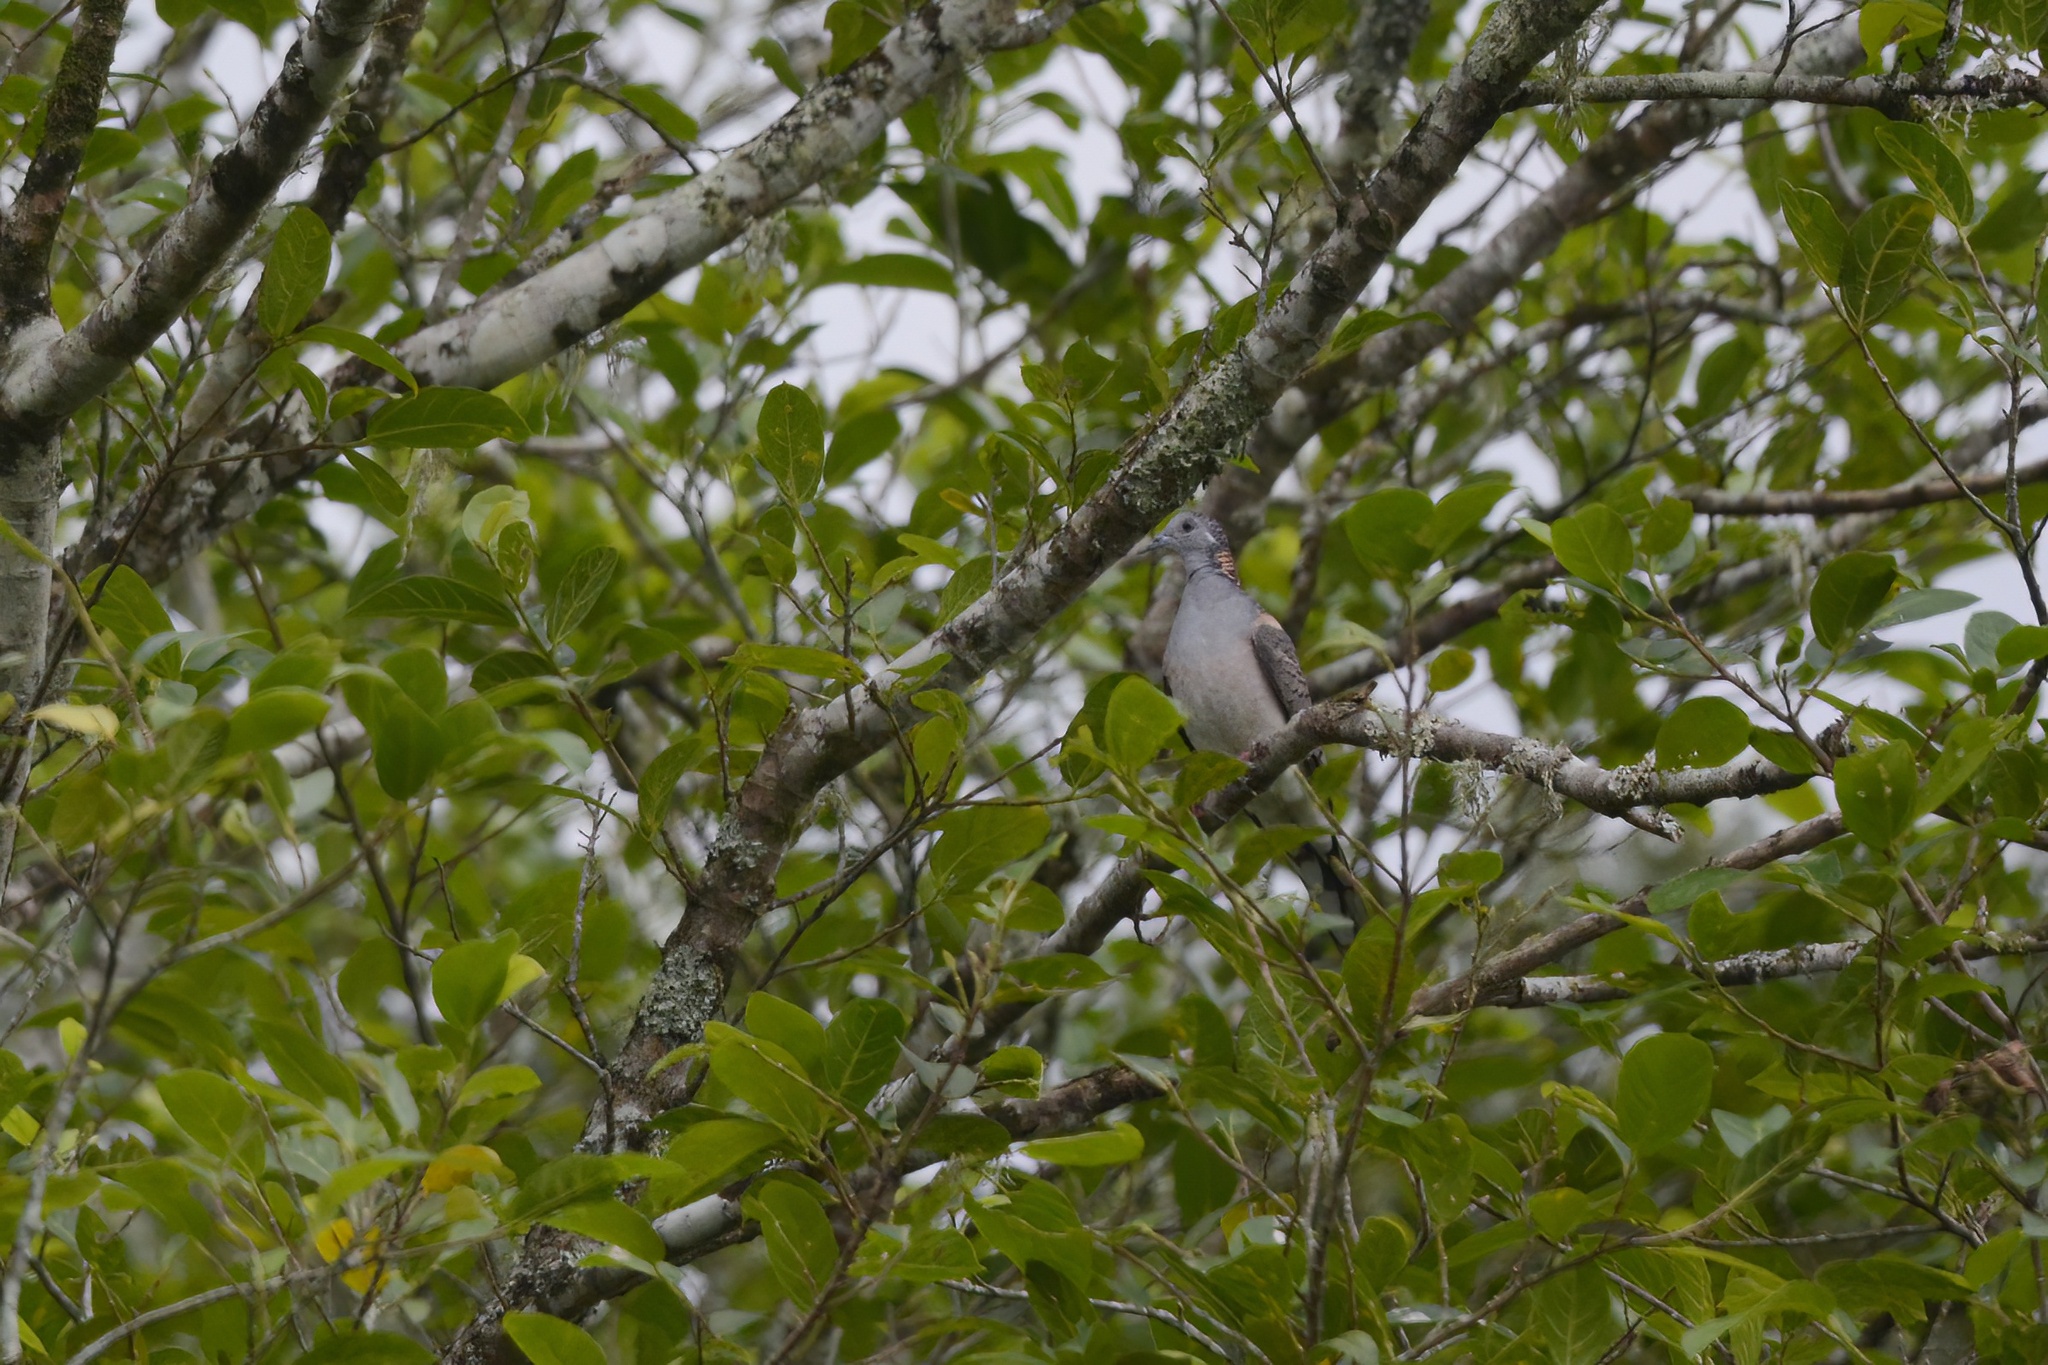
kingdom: Animalia
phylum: Chordata
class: Aves
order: Columbiformes
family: Columbidae
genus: Geopelia
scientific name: Geopelia humeralis
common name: Bar-shouldered dove
